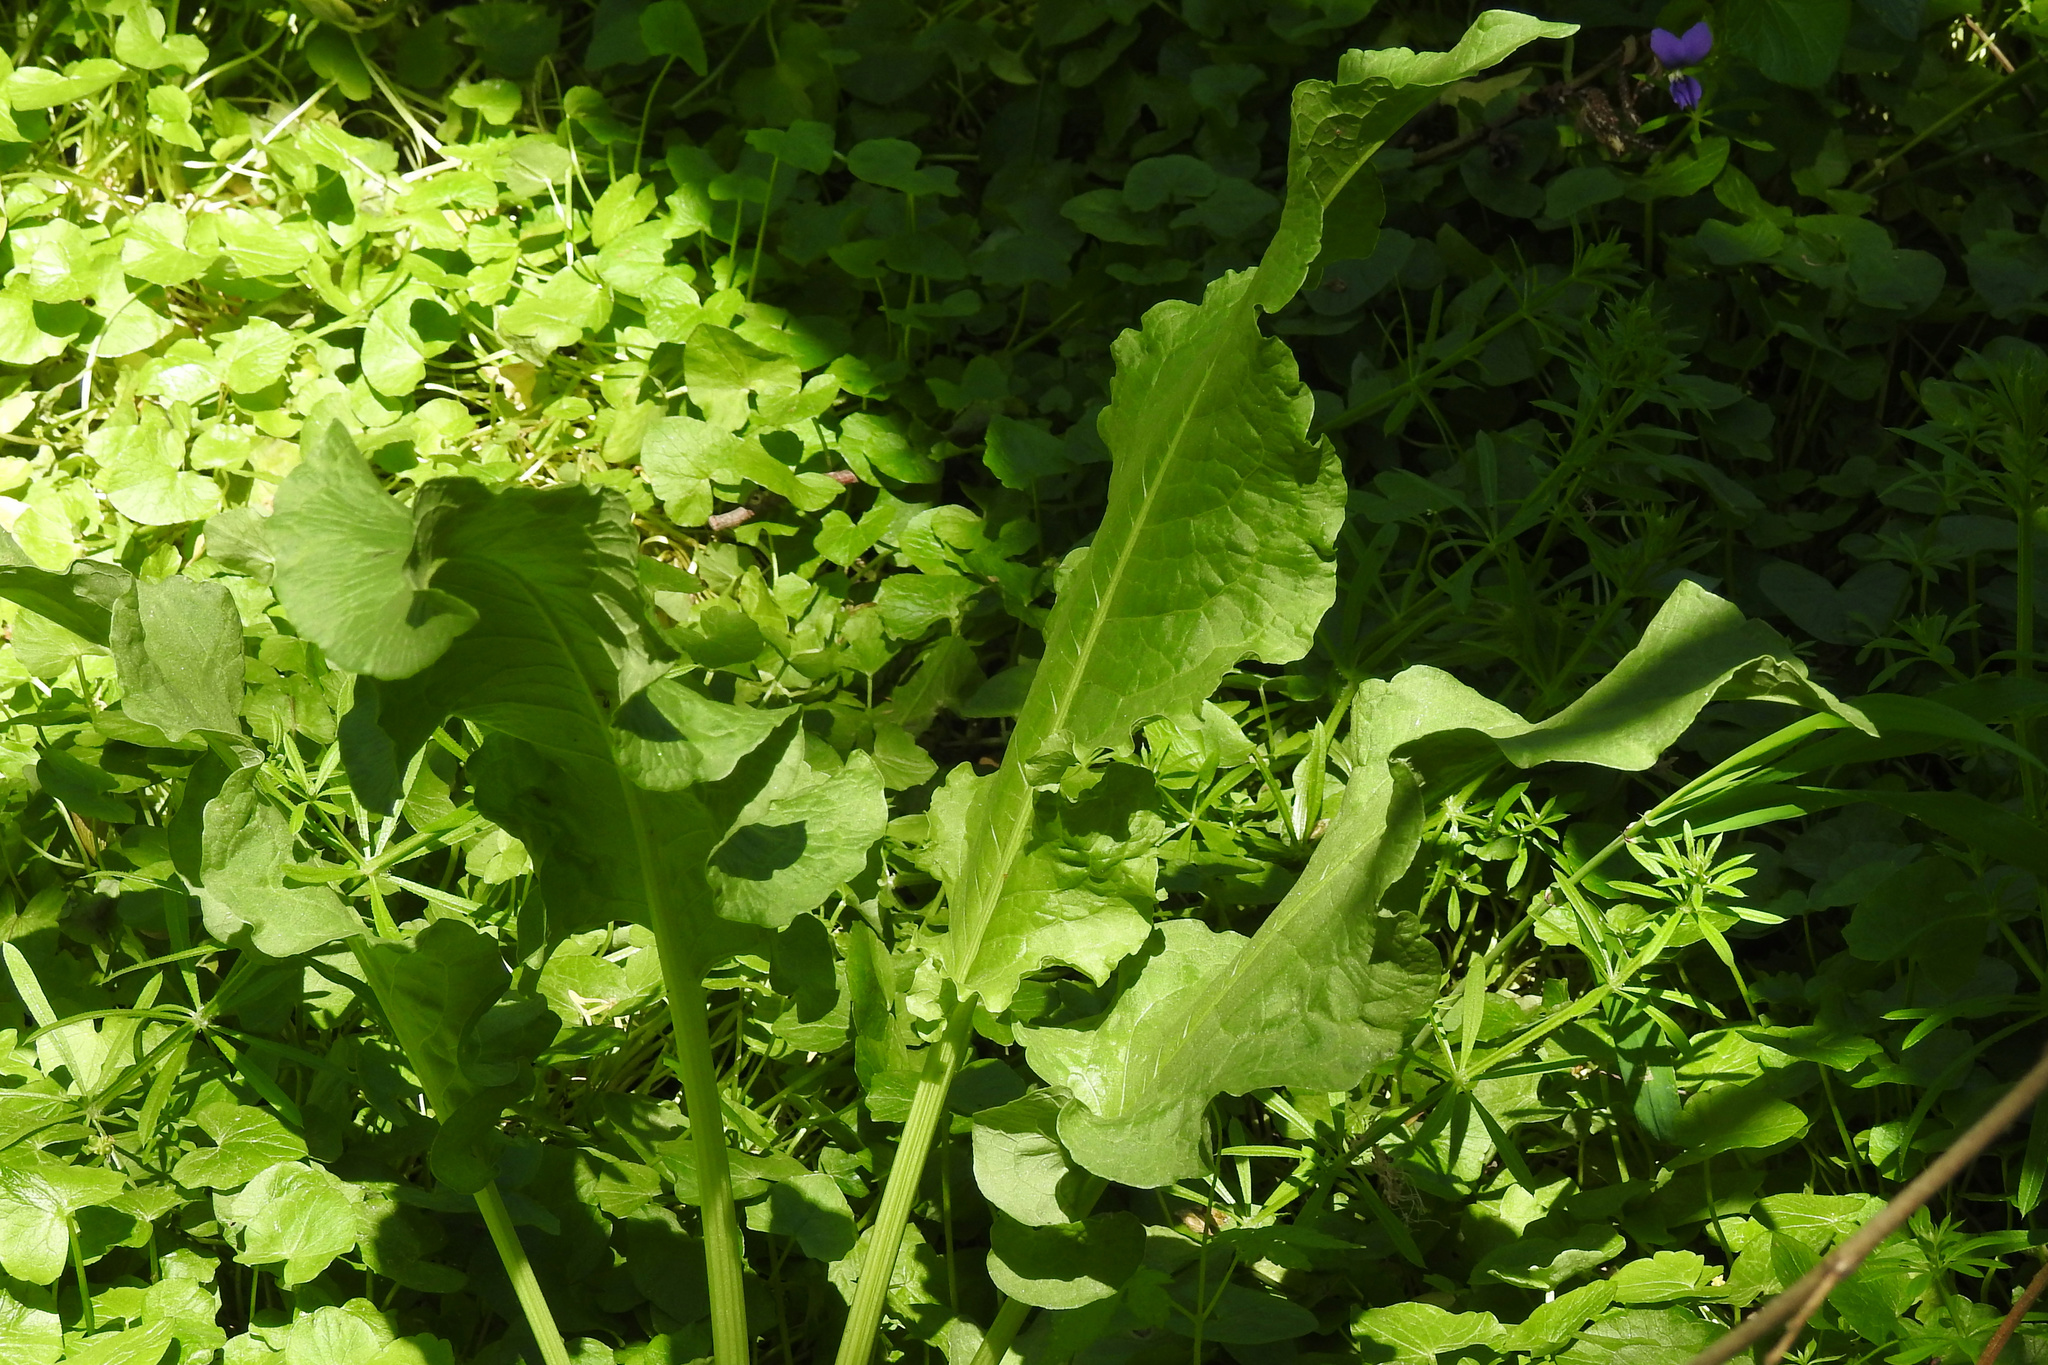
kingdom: Plantae
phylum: Tracheophyta
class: Magnoliopsida
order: Caryophyllales
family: Polygonaceae
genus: Rumex
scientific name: Rumex crispus
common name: Curled dock
